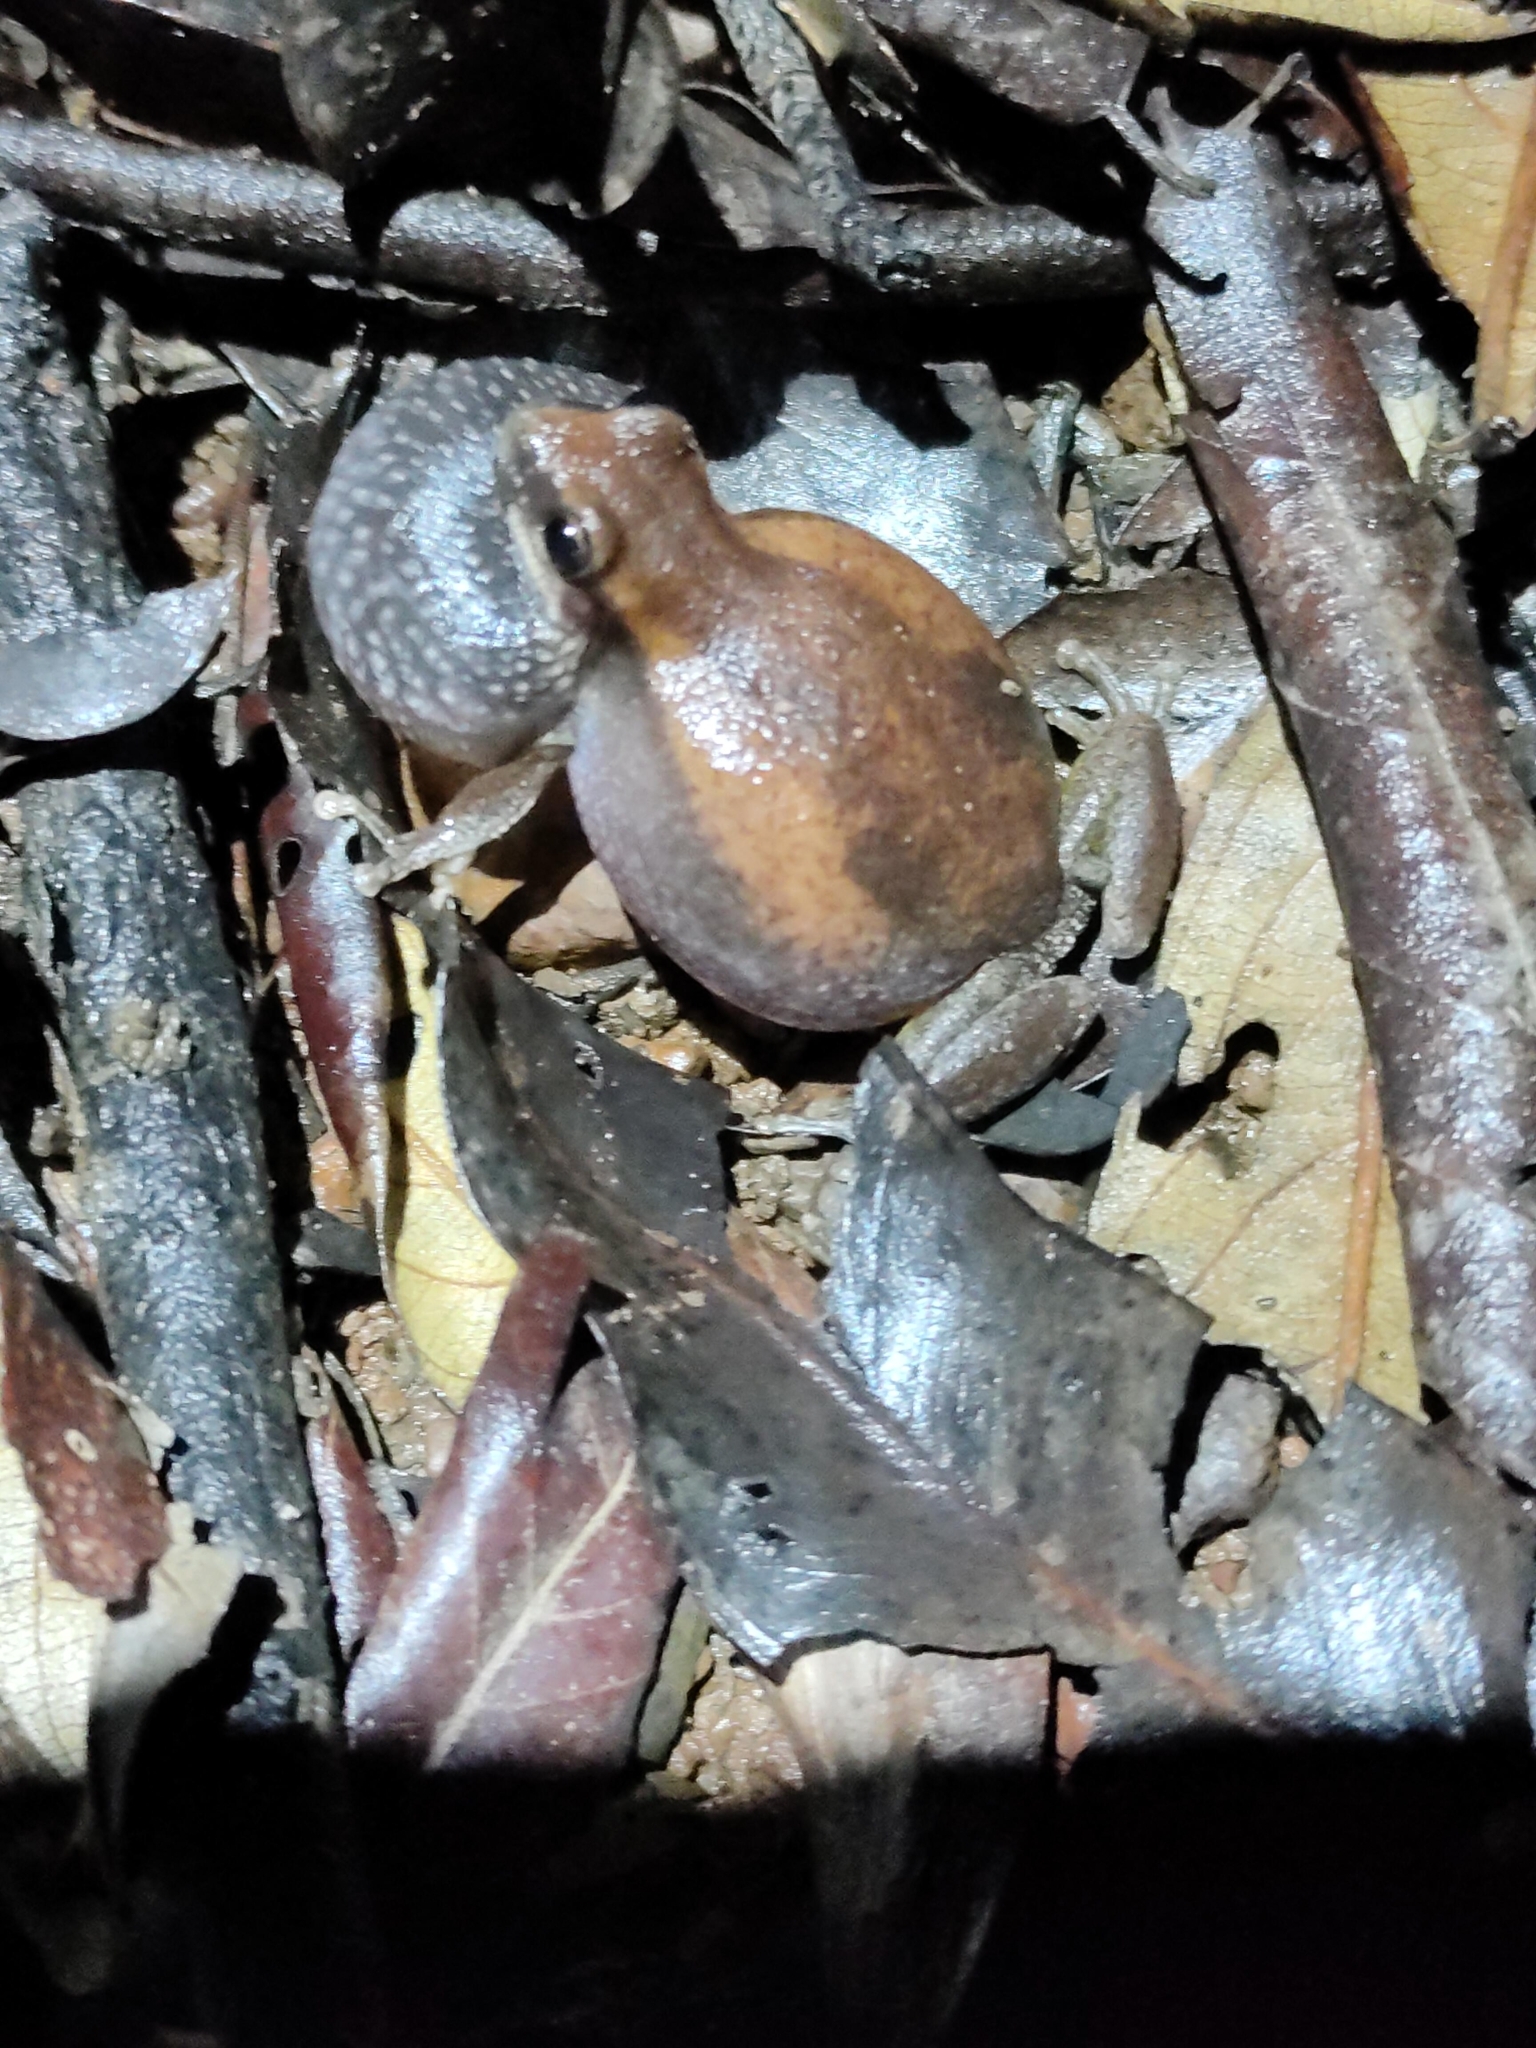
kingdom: Animalia
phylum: Chordata
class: Amphibia
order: Anura
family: Pelodryadidae
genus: Litoria
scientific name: Litoria rubella
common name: Desert tree frog
